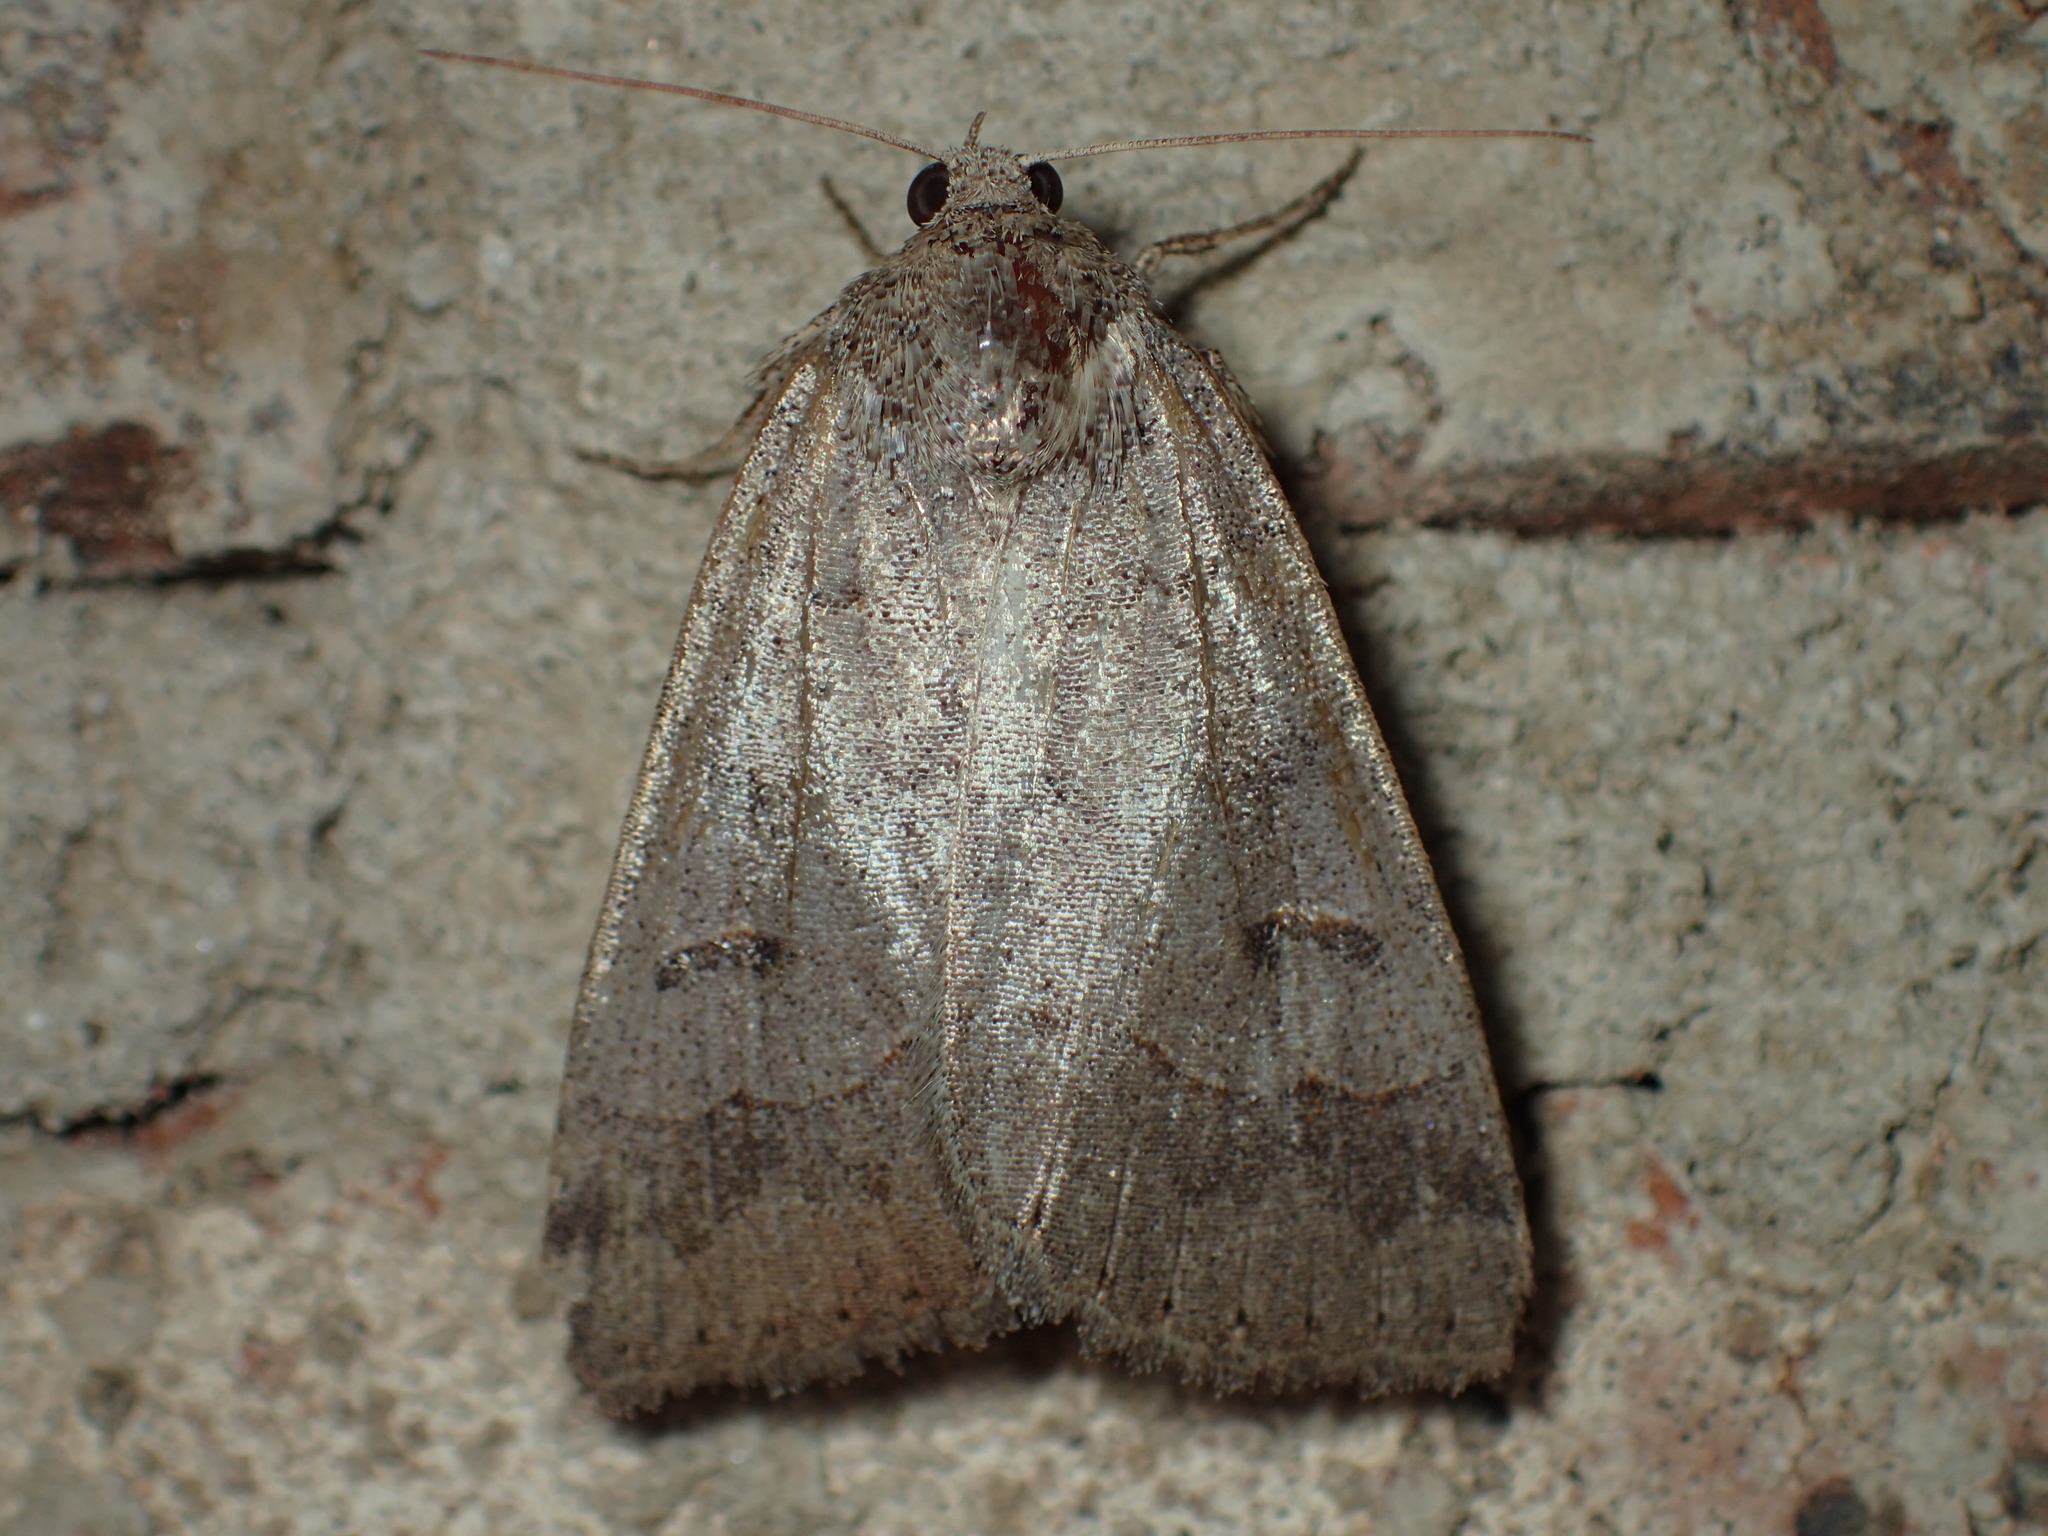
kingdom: Animalia
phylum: Arthropoda
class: Insecta
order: Lepidoptera
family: Erebidae
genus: Phoberia
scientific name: Phoberia atomaris
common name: Common oak moth
